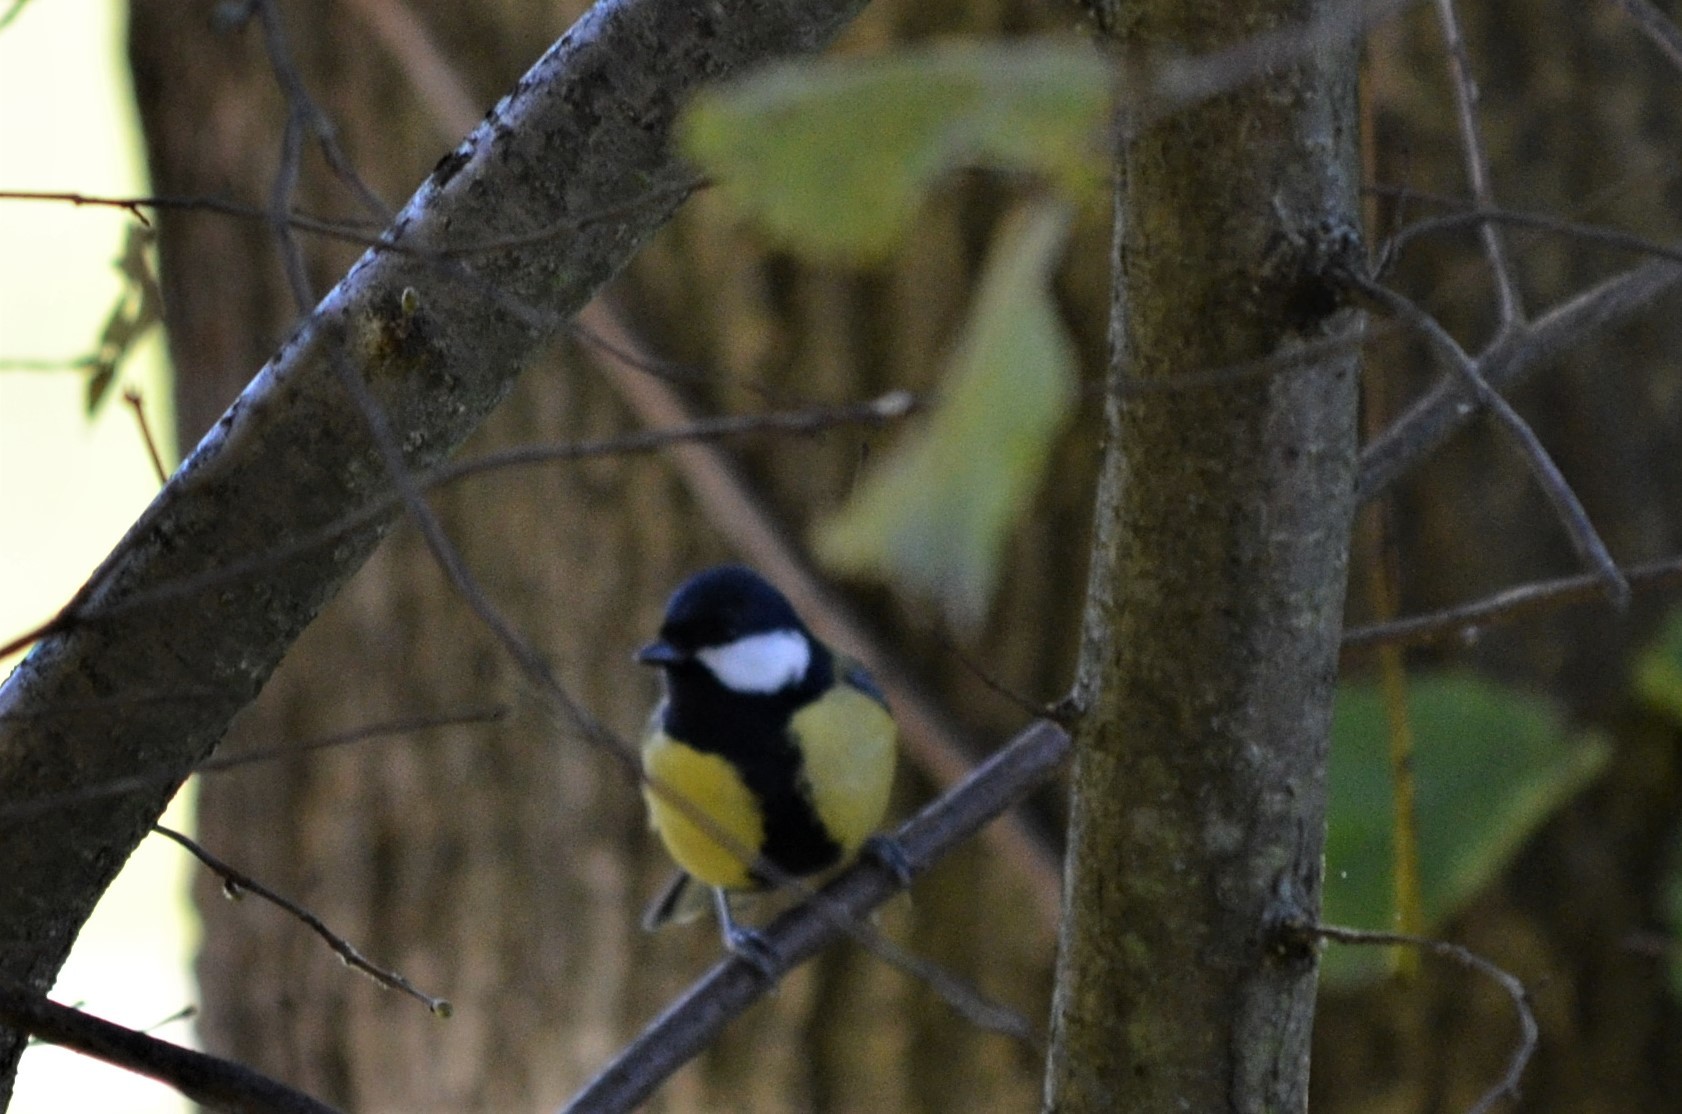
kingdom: Animalia
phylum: Chordata
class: Aves
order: Passeriformes
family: Paridae
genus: Parus
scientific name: Parus major
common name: Great tit
